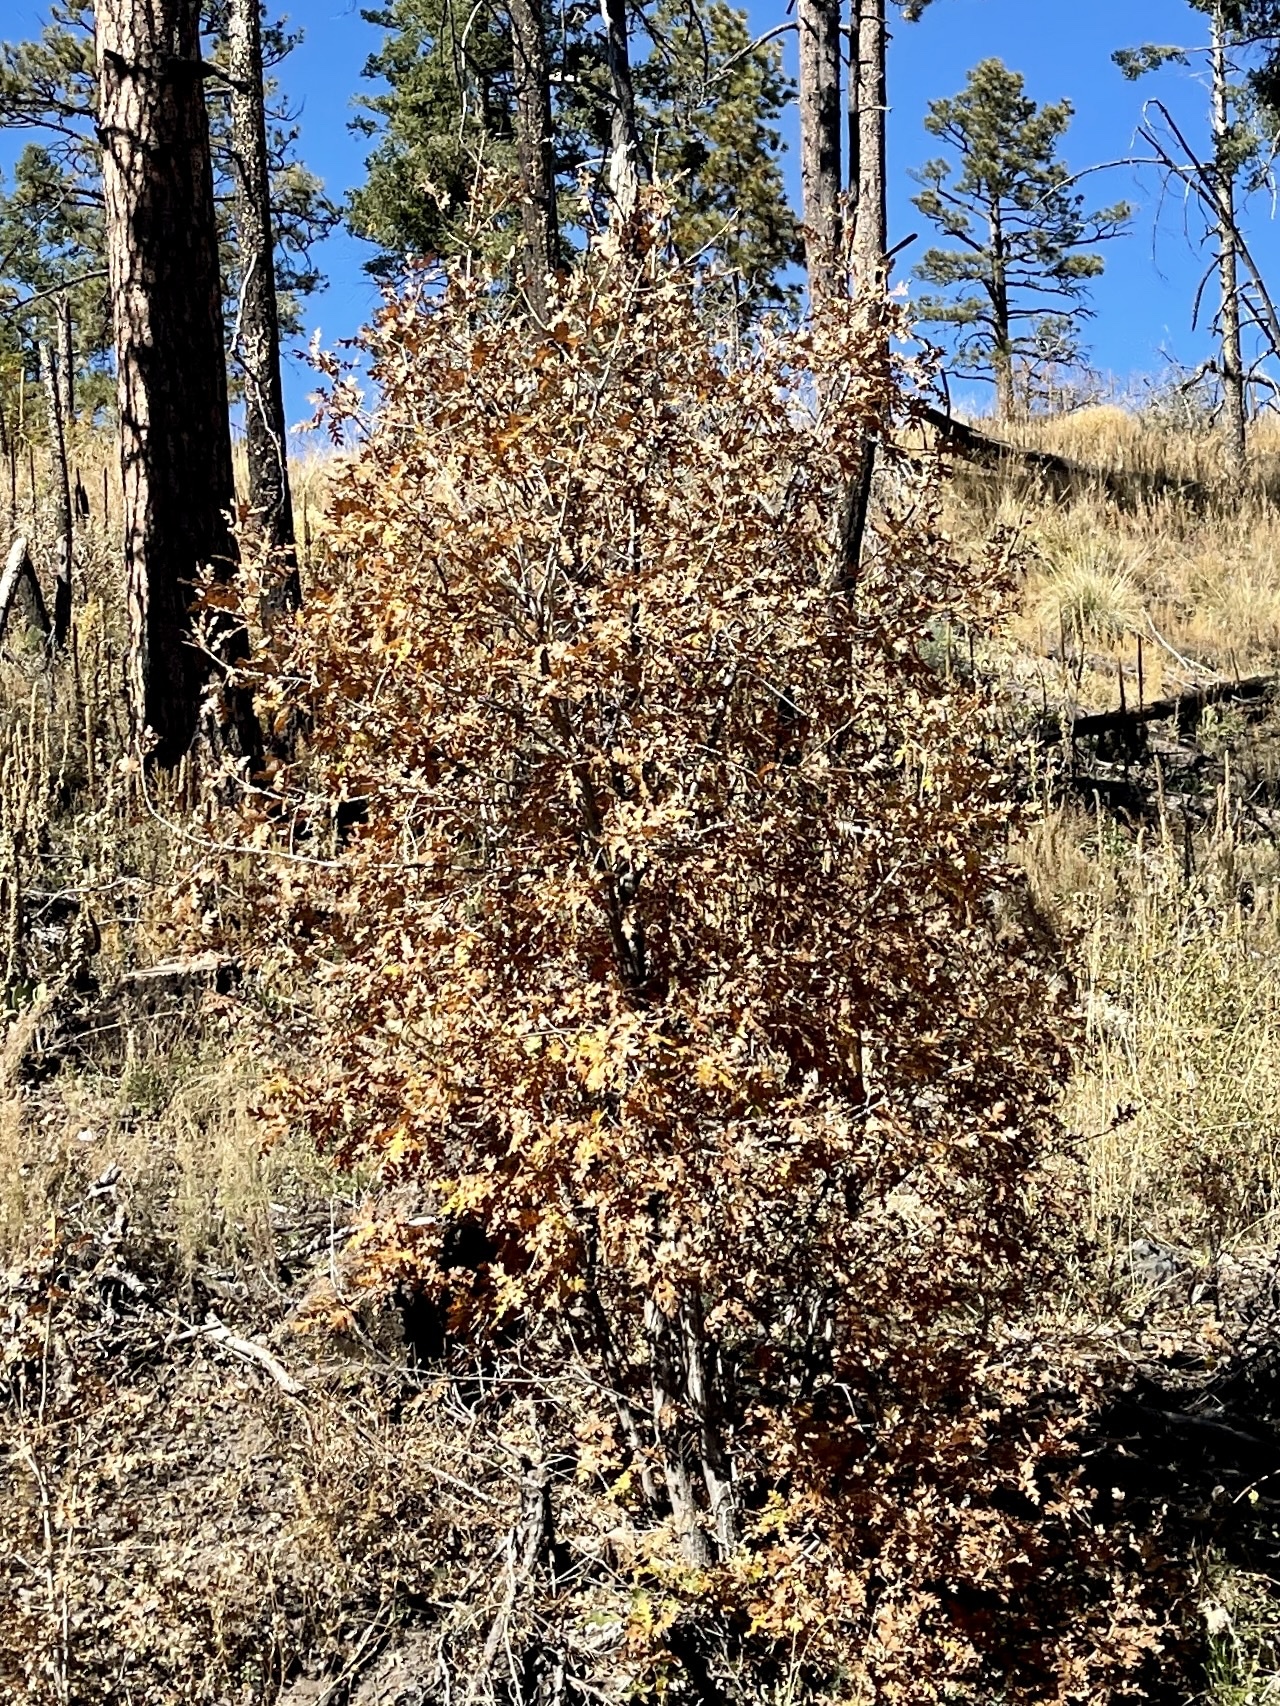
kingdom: Plantae
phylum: Tracheophyta
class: Magnoliopsida
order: Fagales
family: Fagaceae
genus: Quercus
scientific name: Quercus gambelii
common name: Gambel oak
